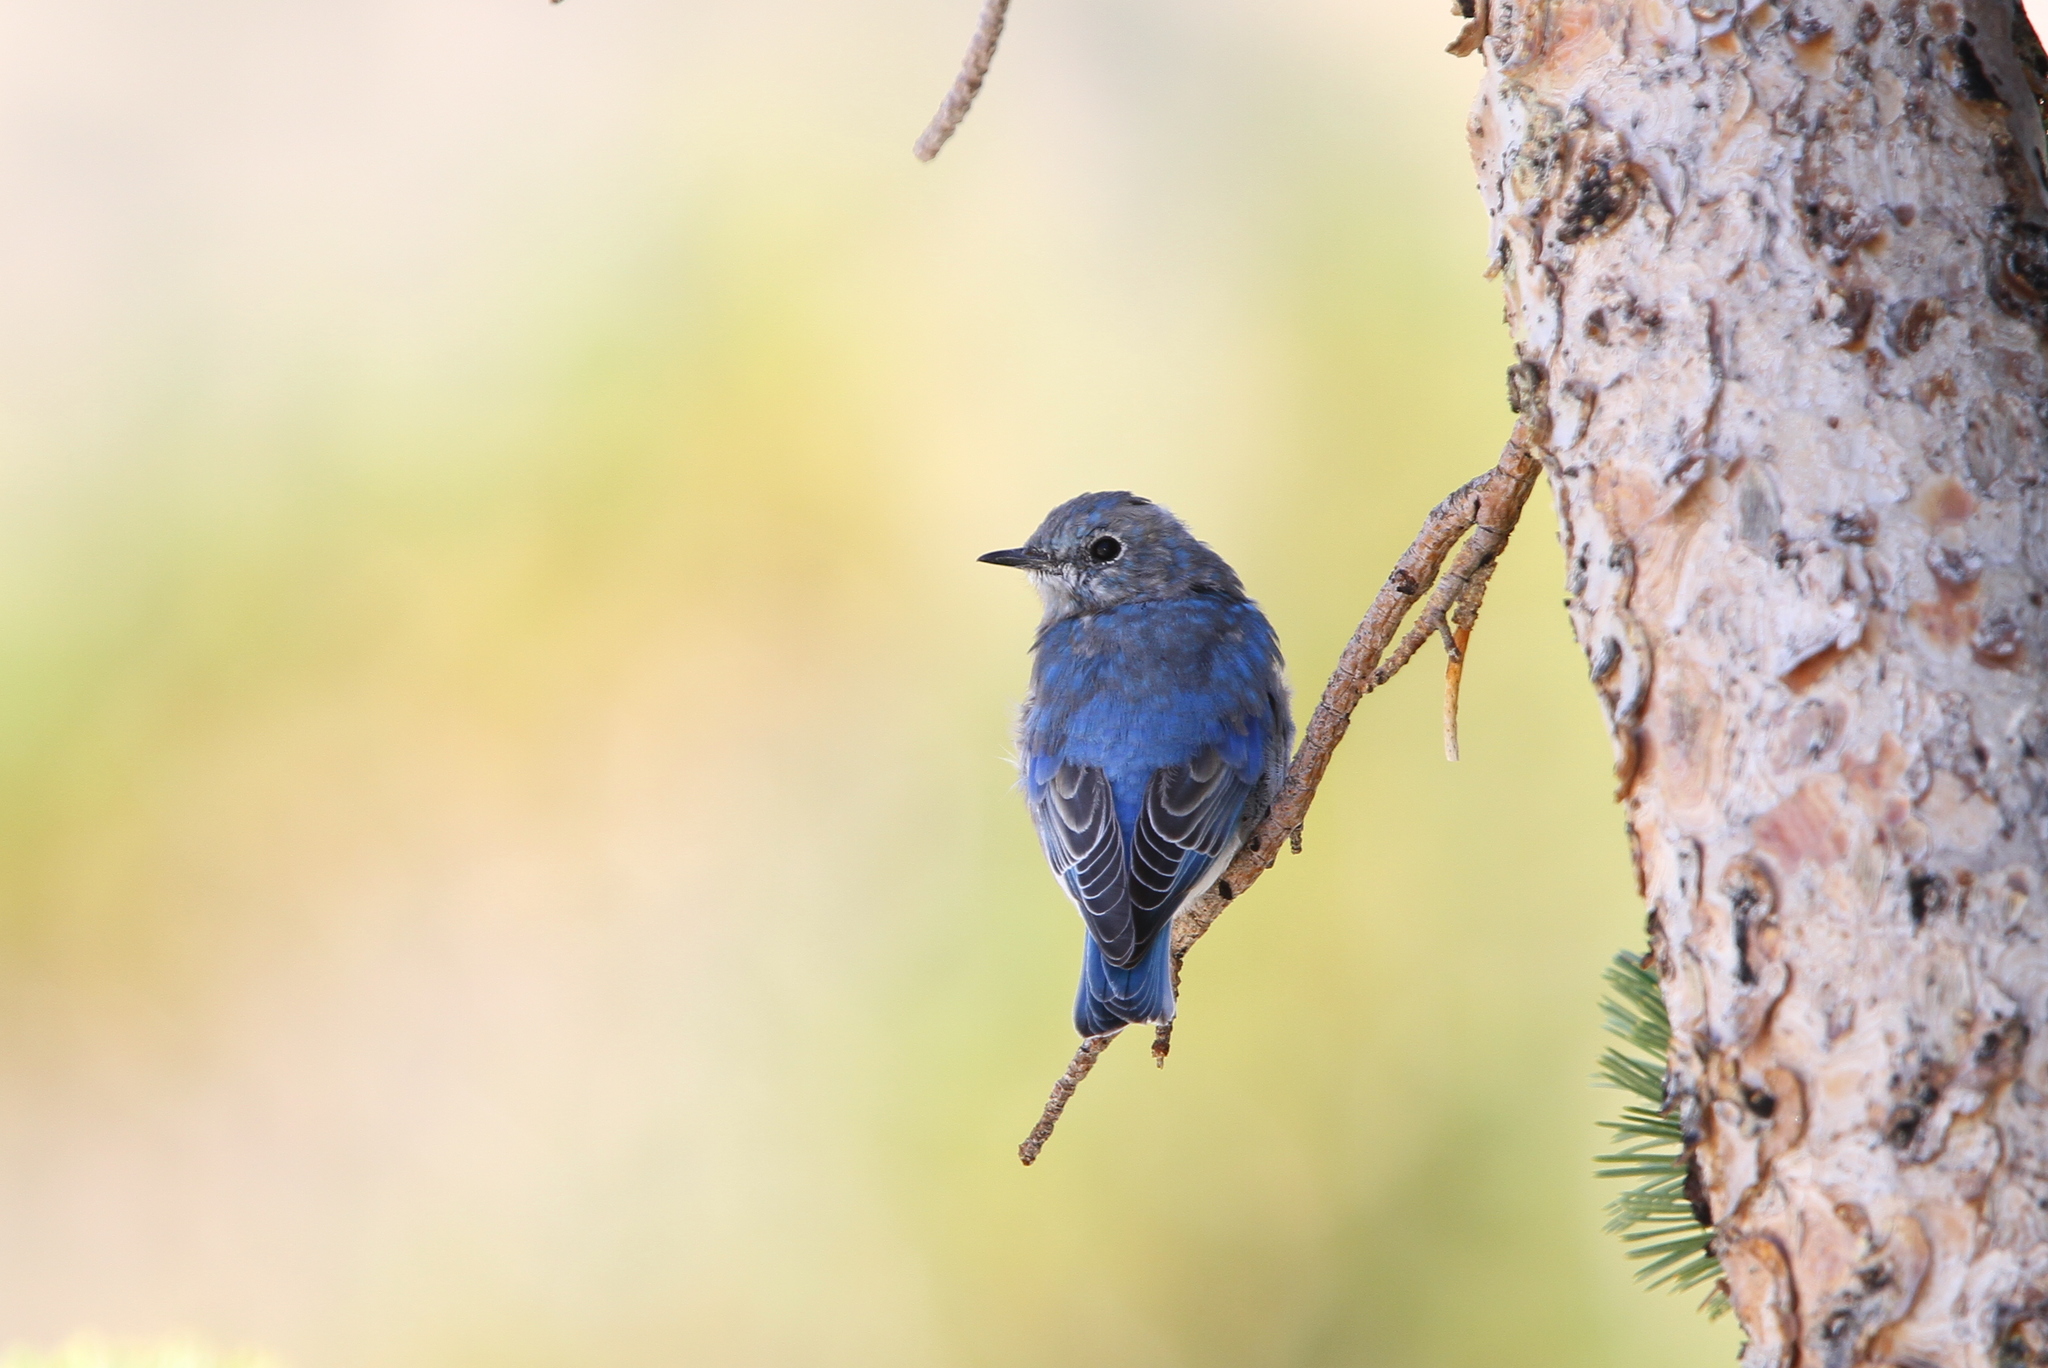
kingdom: Animalia
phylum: Chordata
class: Aves
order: Passeriformes
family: Turdidae
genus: Sialia
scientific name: Sialia currucoides
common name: Mountain bluebird
